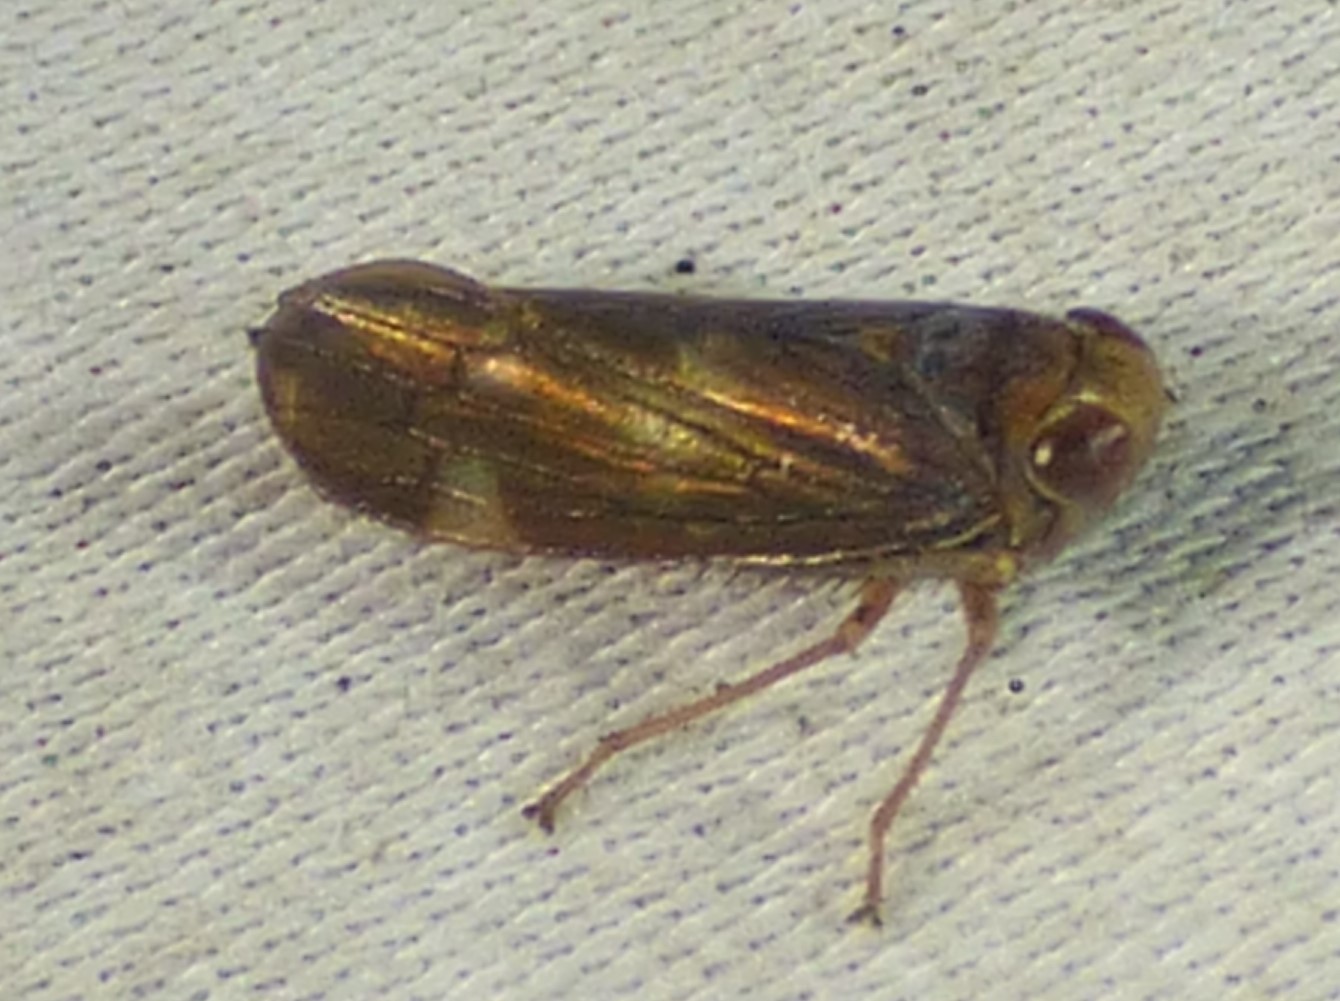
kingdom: Animalia
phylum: Arthropoda
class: Insecta
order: Hemiptera
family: Cicadellidae
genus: Jikradia
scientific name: Jikradia olitoria
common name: Coppery leafhopper
